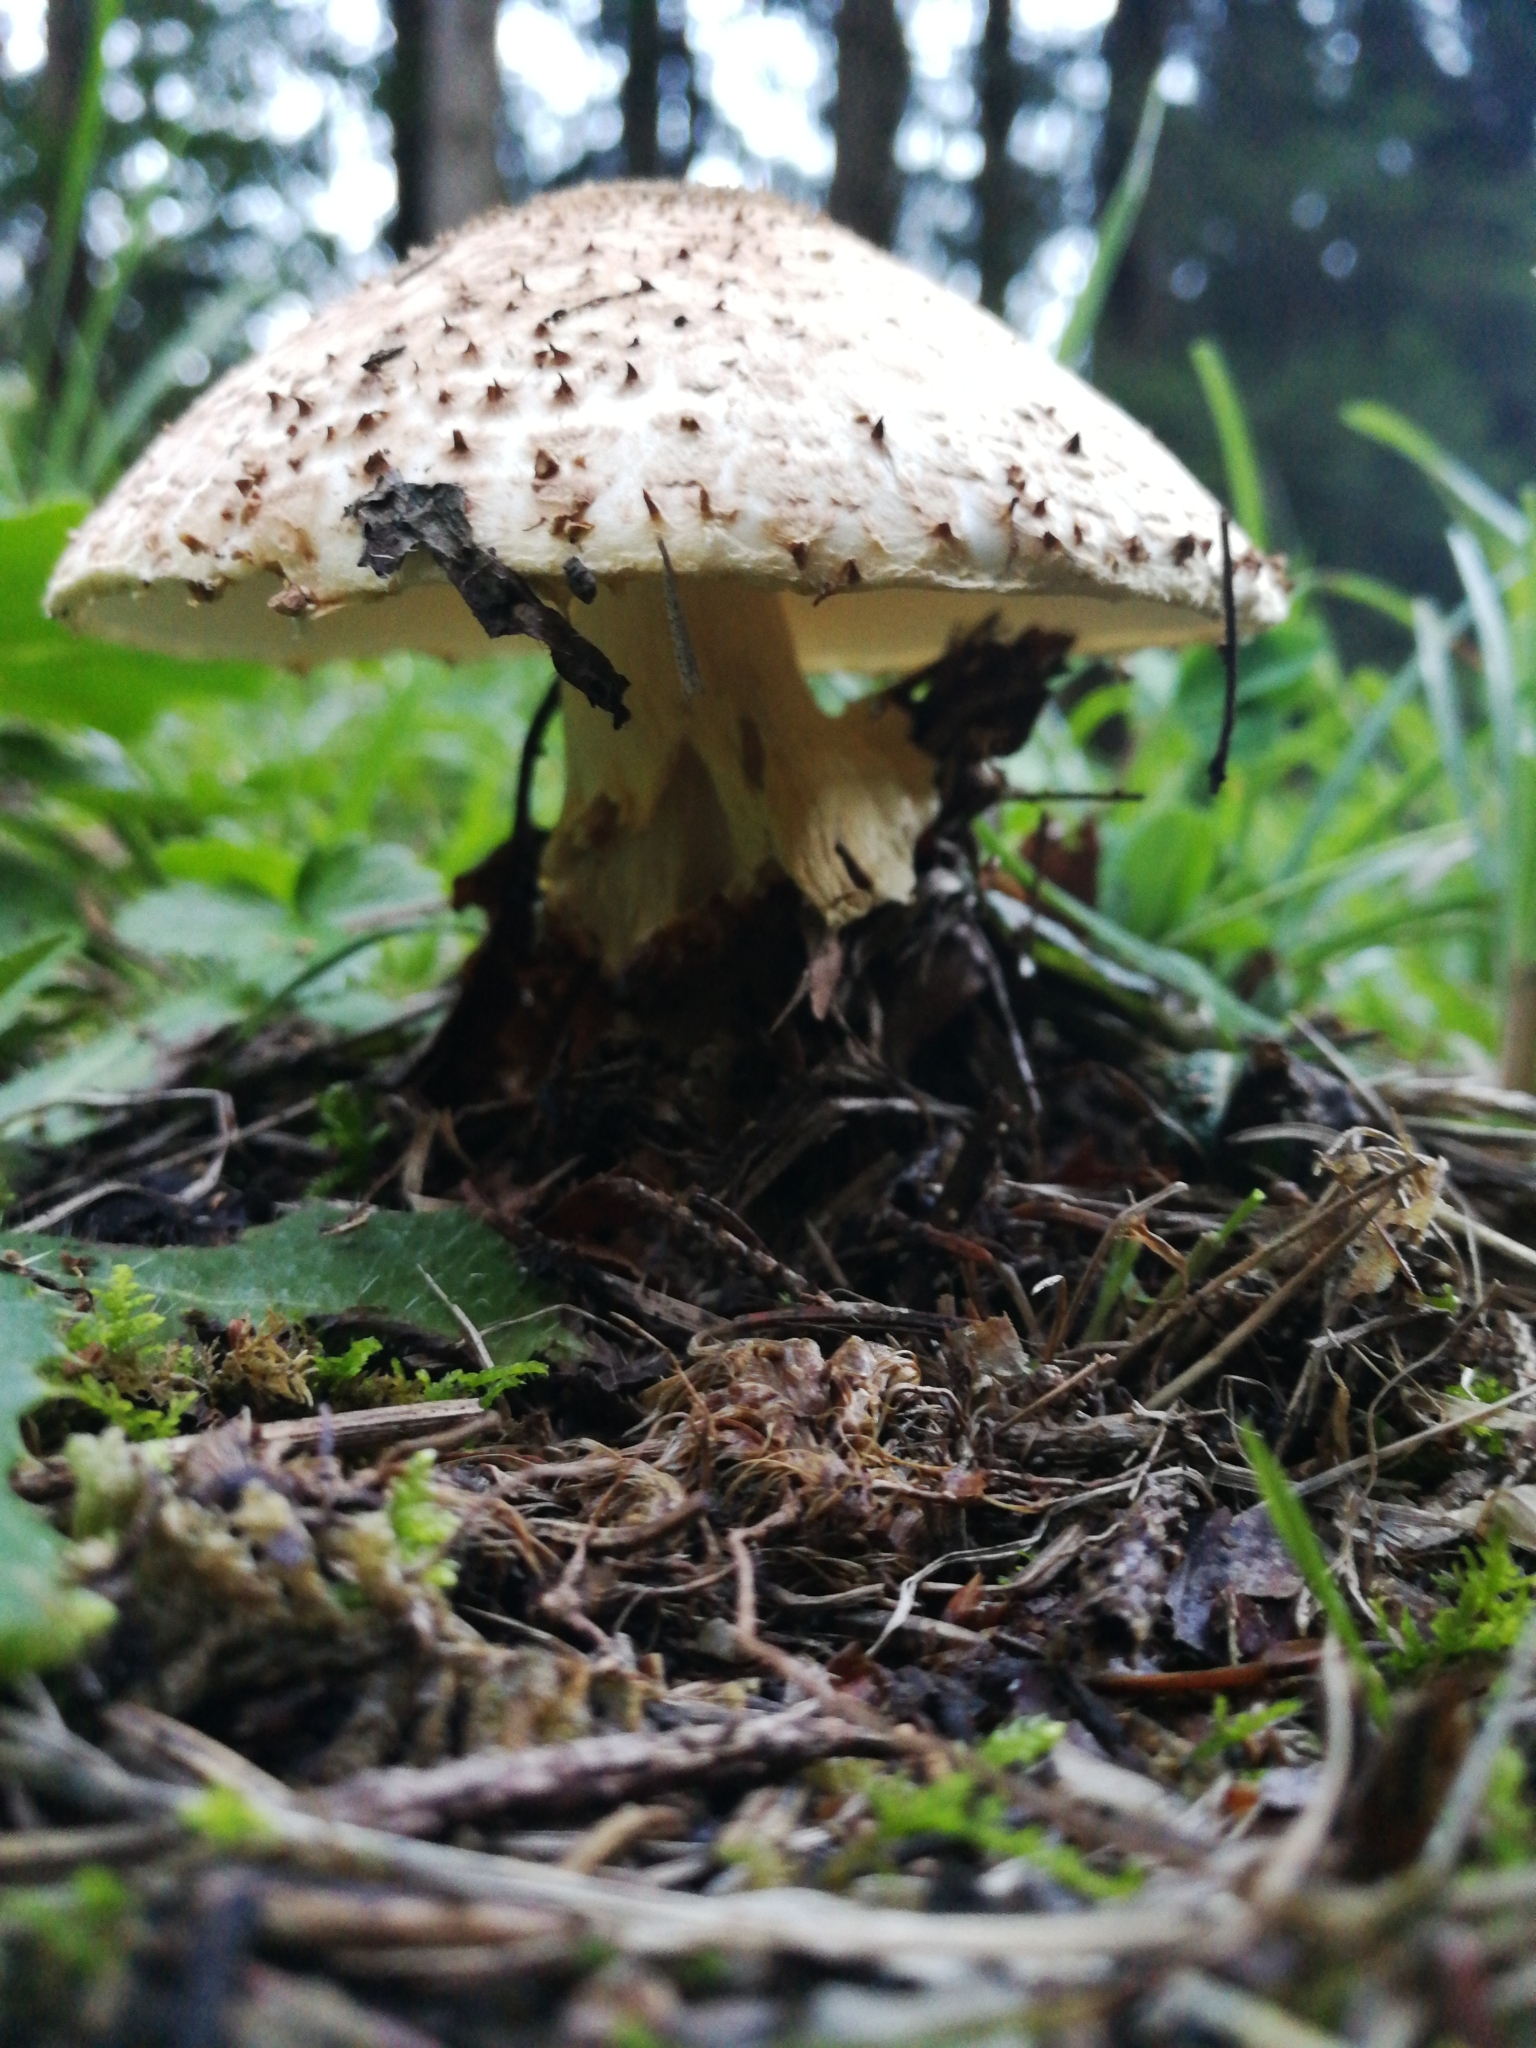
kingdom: Fungi
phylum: Basidiomycota
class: Agaricomycetes
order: Agaricales
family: Agaricaceae
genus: Echinoderma
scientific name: Echinoderma asperum
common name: Freckled dapperling
